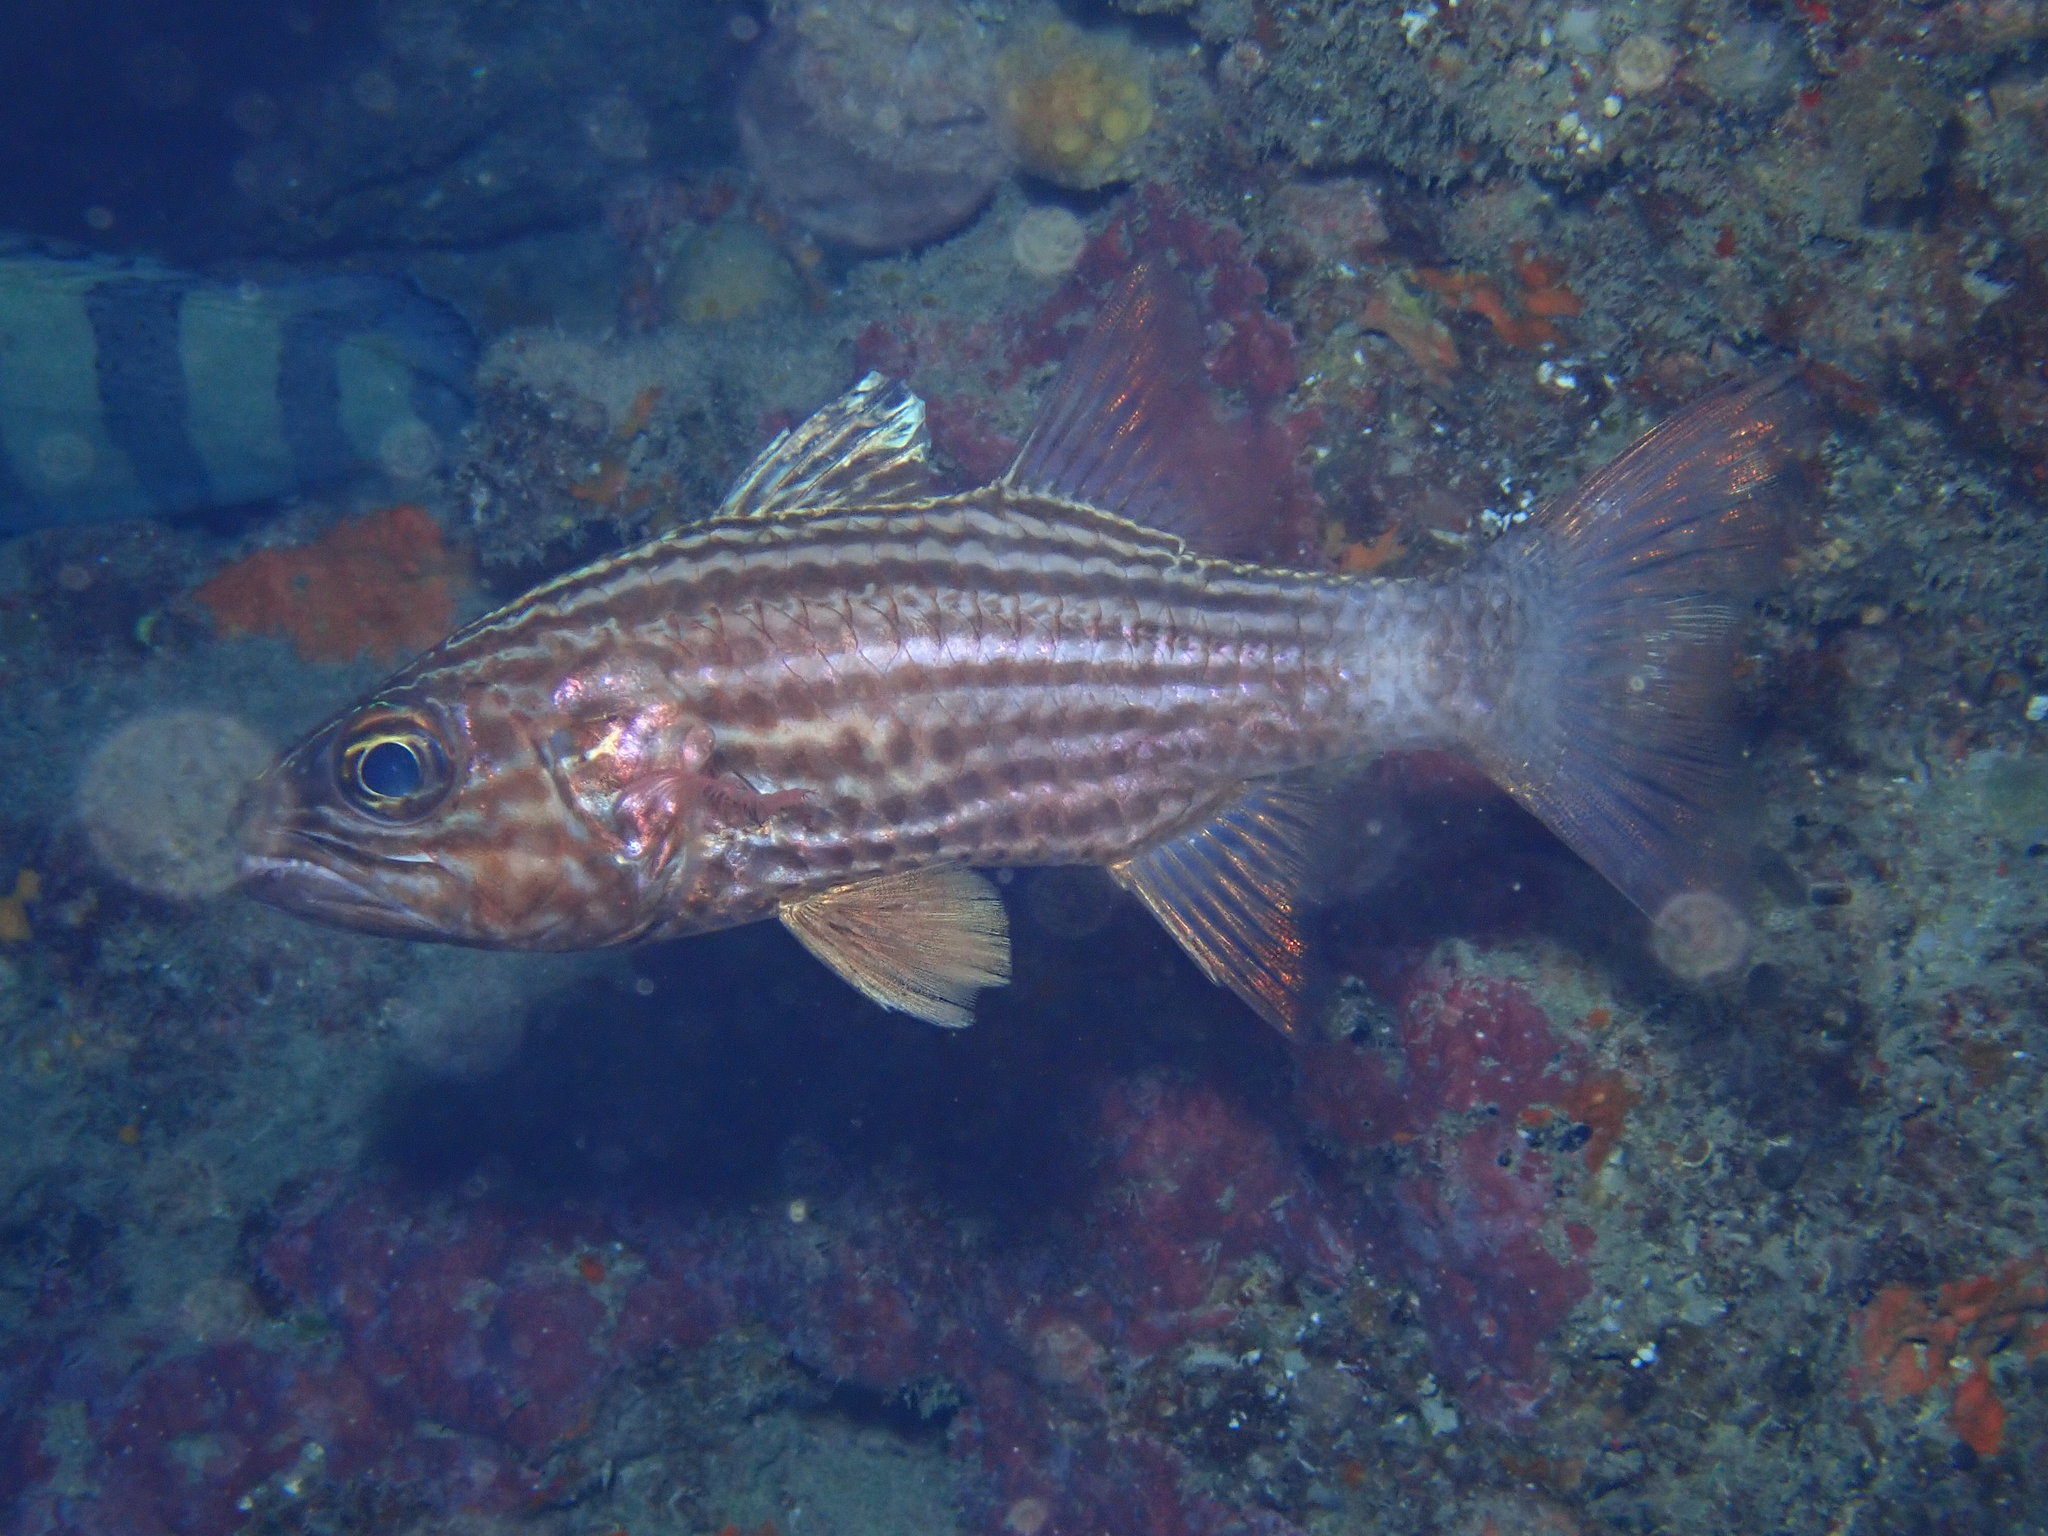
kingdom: Animalia
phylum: Chordata
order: Perciformes
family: Apogonidae
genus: Cheilodipterus
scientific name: Cheilodipterus macrodon
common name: Eight-lined cardinalfish
